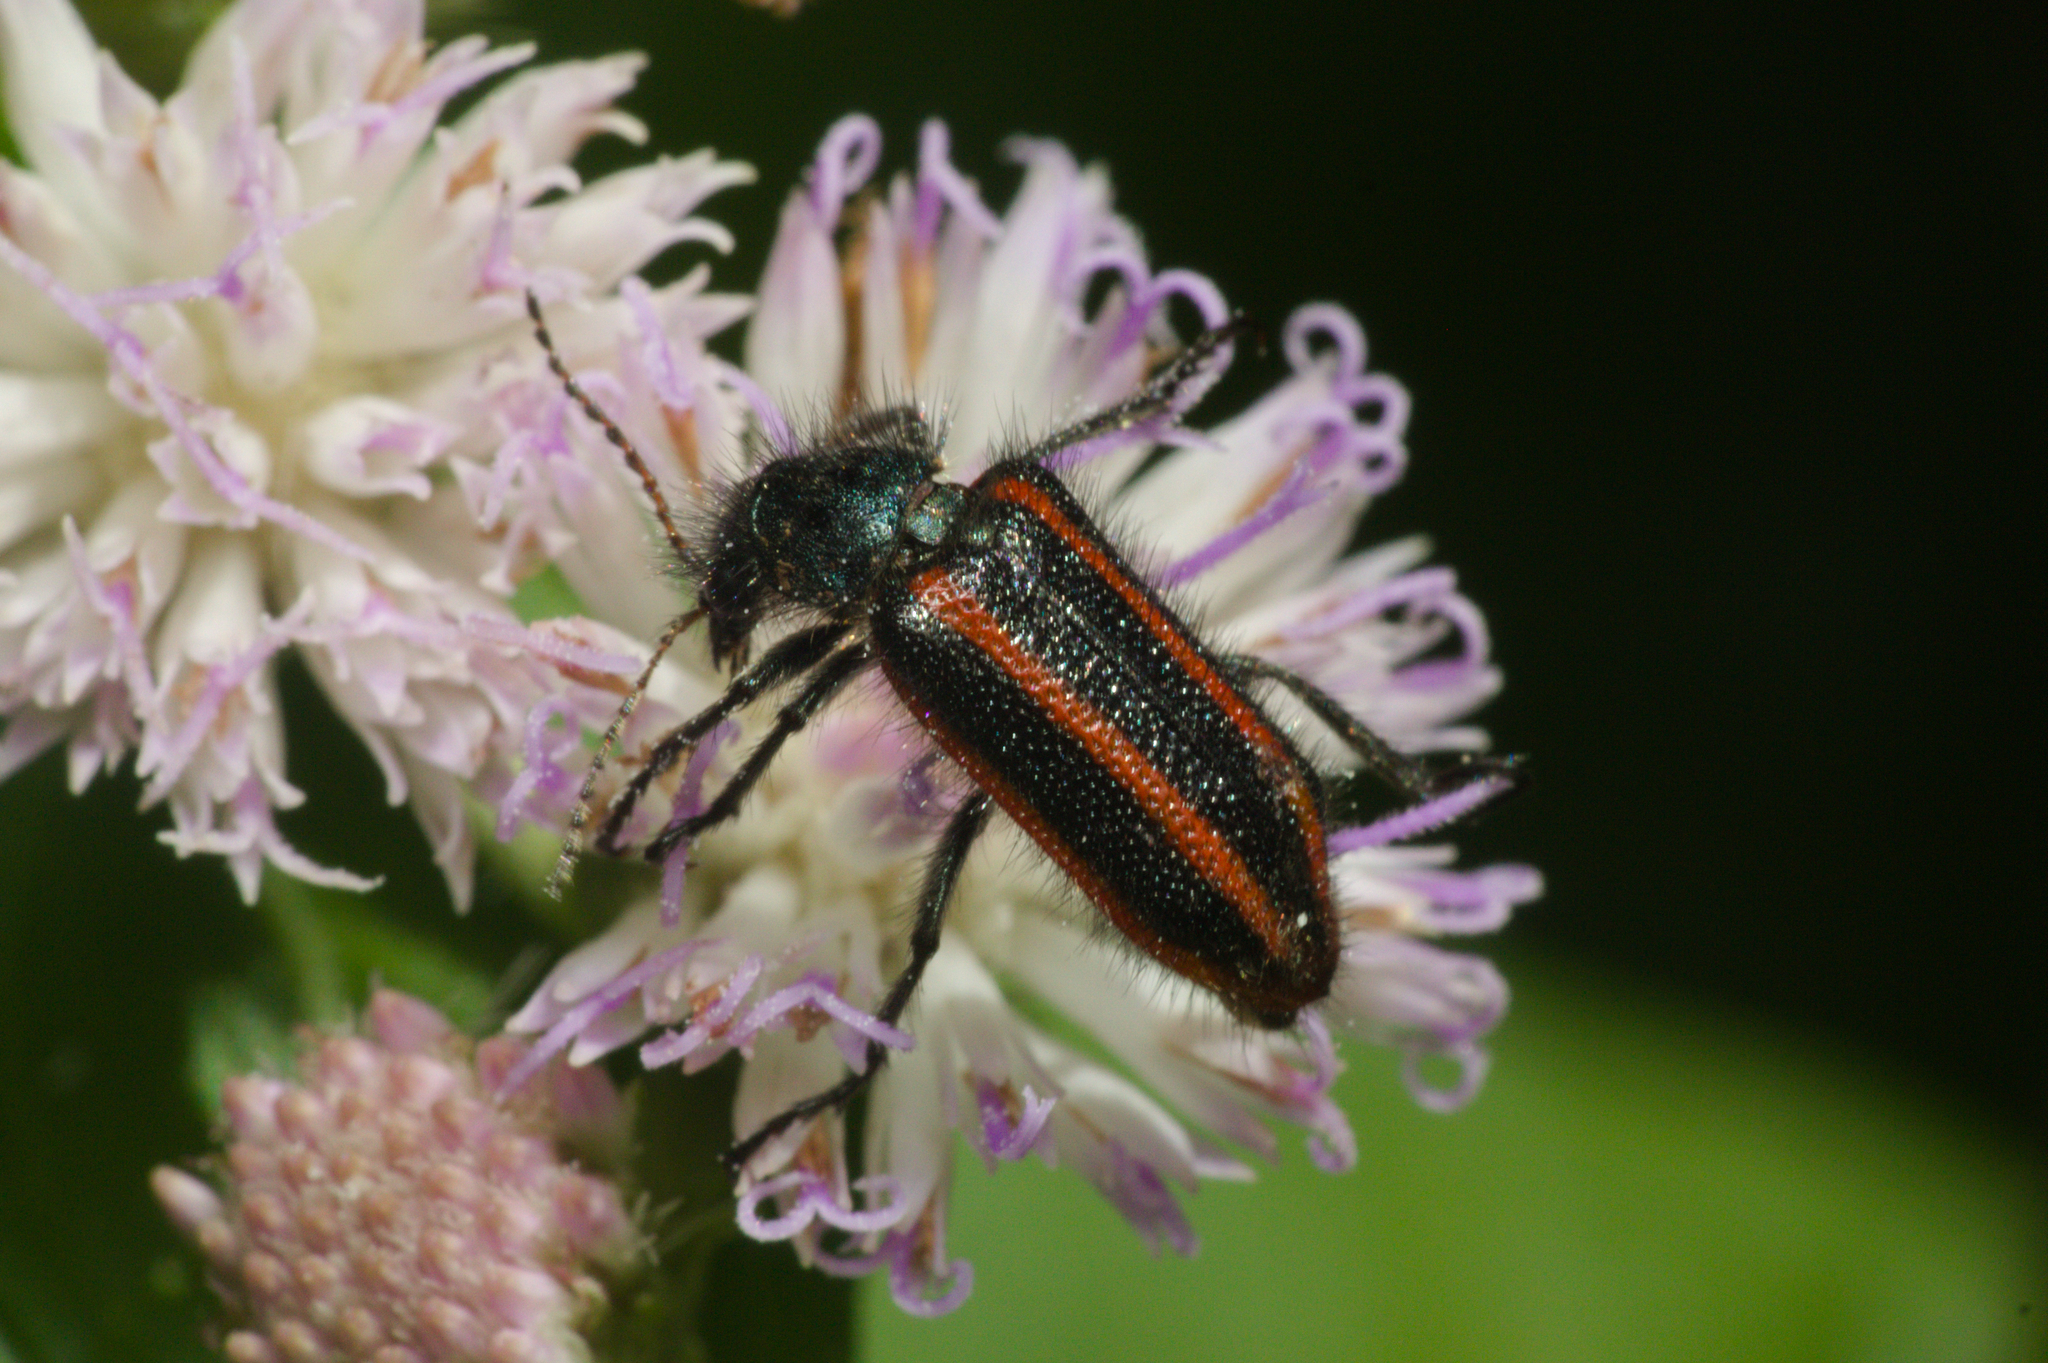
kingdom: Animalia
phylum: Arthropoda
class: Insecta
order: Coleoptera
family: Melyridae
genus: Astylus
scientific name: Astylus
